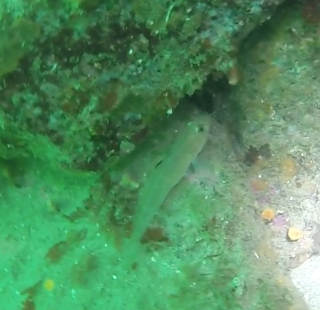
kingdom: Animalia
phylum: Chordata
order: Perciformes
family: Gobiidae
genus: Rhinogobiops
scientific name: Rhinogobiops nicholsii
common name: Blackeye goby
